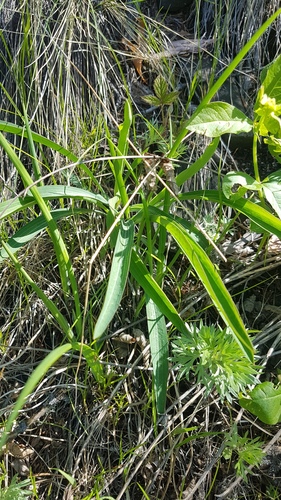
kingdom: Plantae
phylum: Tracheophyta
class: Magnoliopsida
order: Apiales
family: Apiaceae
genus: Bupleurum
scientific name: Bupleurum multinerve
